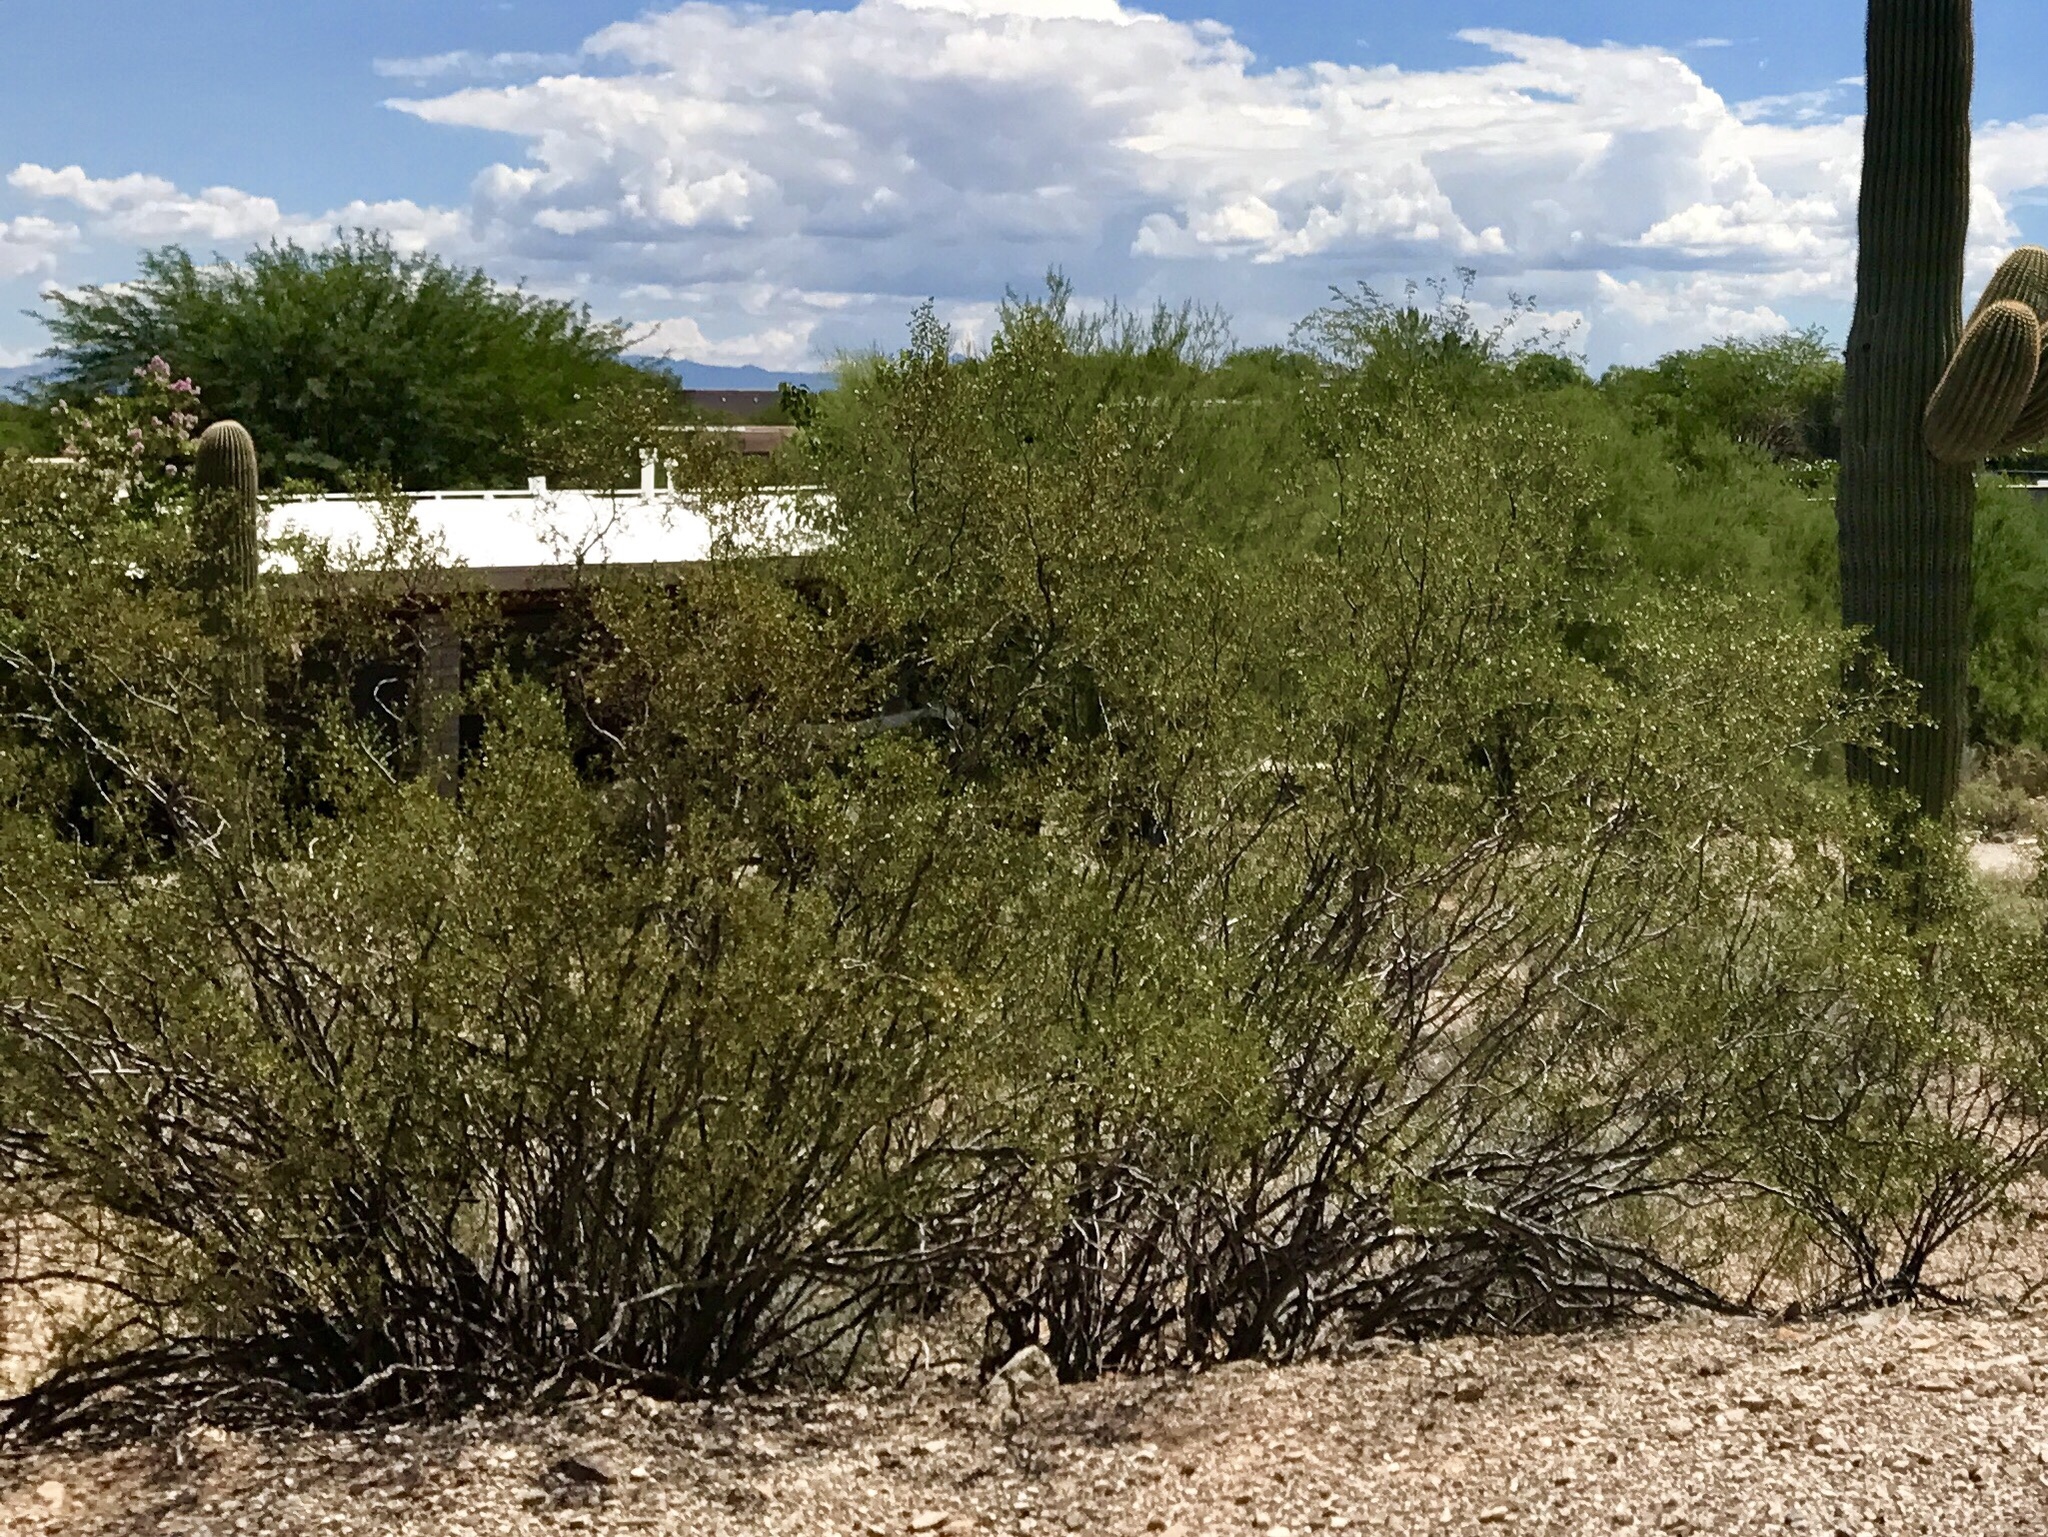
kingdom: Plantae
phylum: Tracheophyta
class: Magnoliopsida
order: Zygophyllales
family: Zygophyllaceae
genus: Larrea
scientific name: Larrea tridentata
